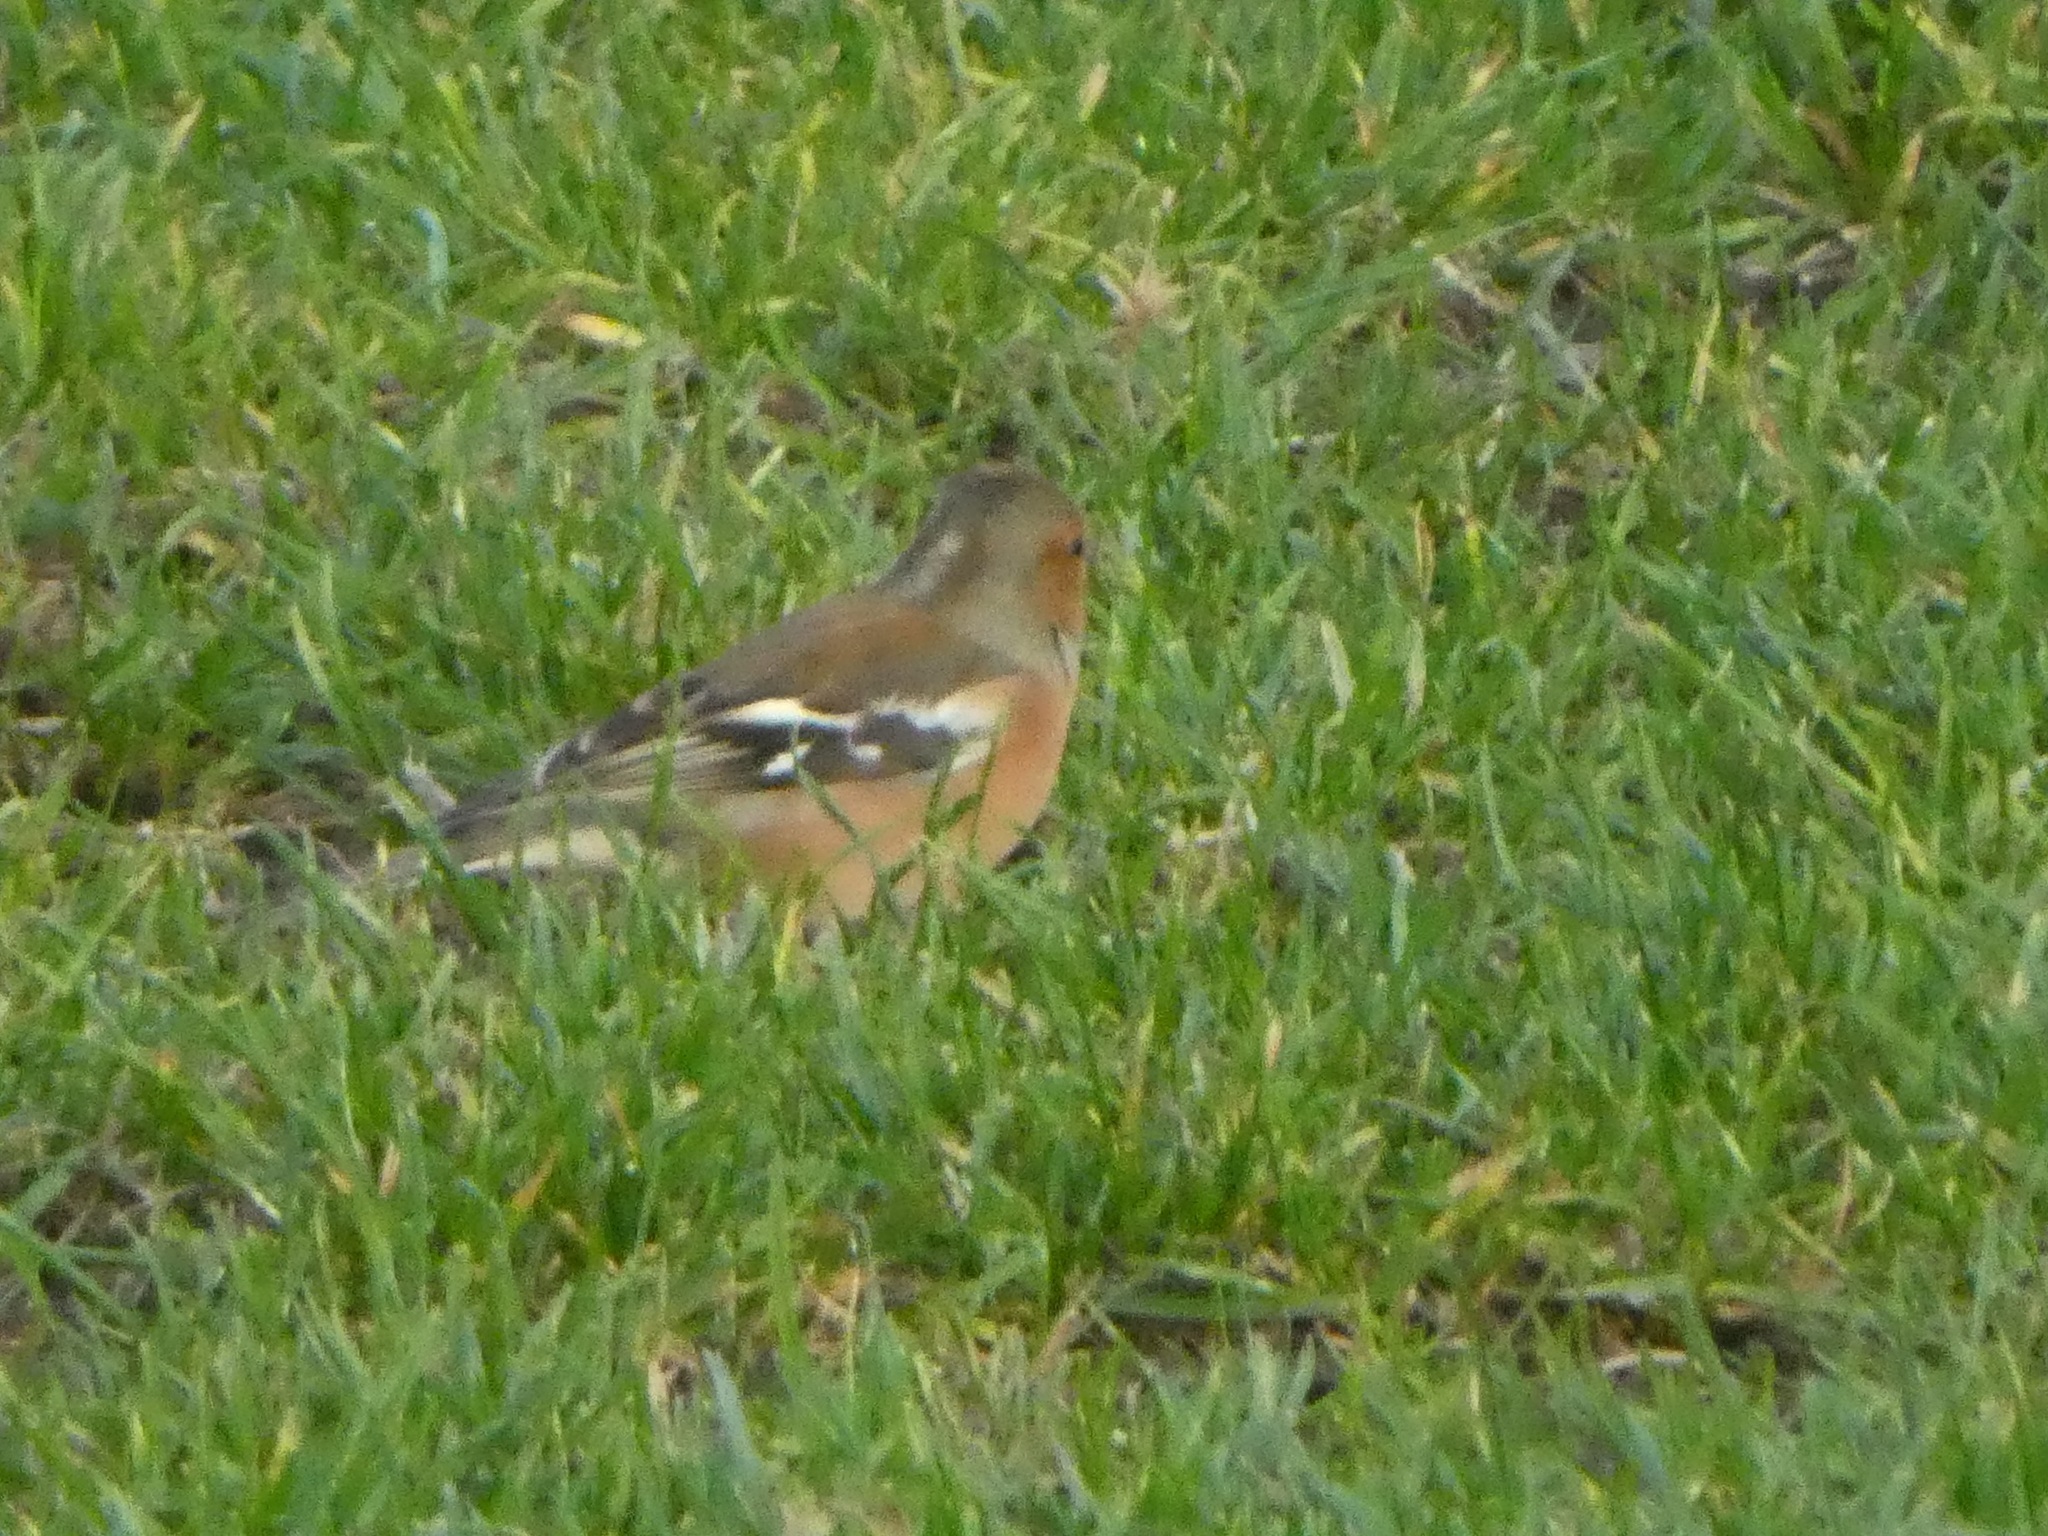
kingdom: Animalia
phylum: Chordata
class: Aves
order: Passeriformes
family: Fringillidae
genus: Fringilla
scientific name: Fringilla coelebs
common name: Common chaffinch
